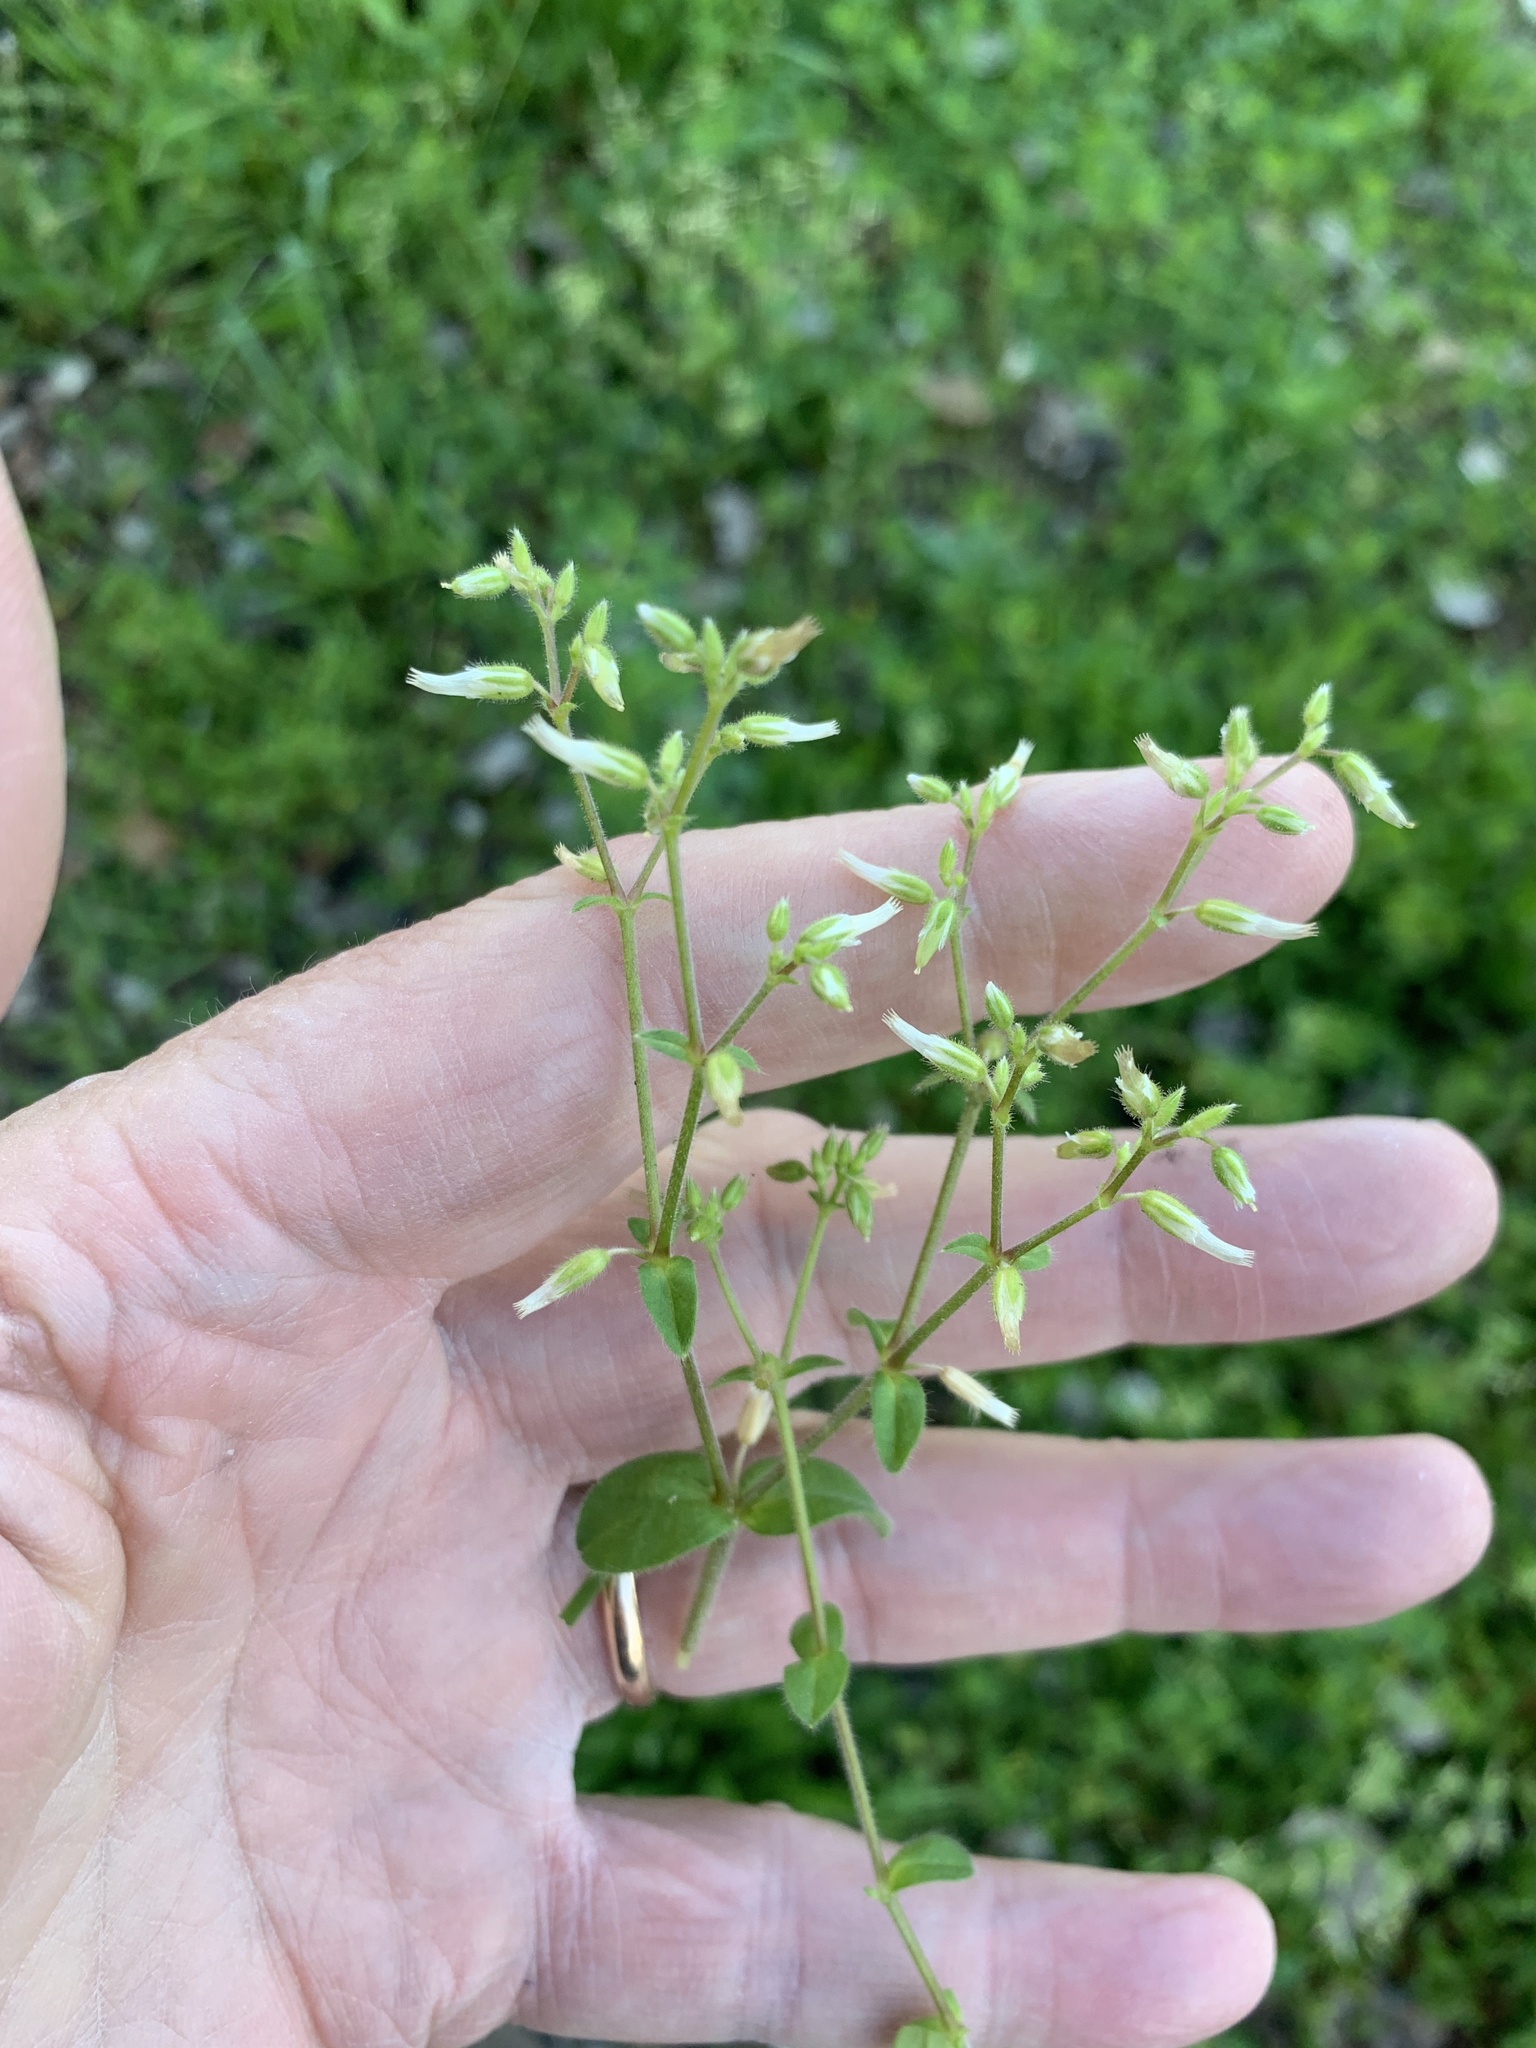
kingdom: Plantae
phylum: Tracheophyta
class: Magnoliopsida
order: Caryophyllales
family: Caryophyllaceae
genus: Cerastium
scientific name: Cerastium glomeratum
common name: Sticky chickweed
